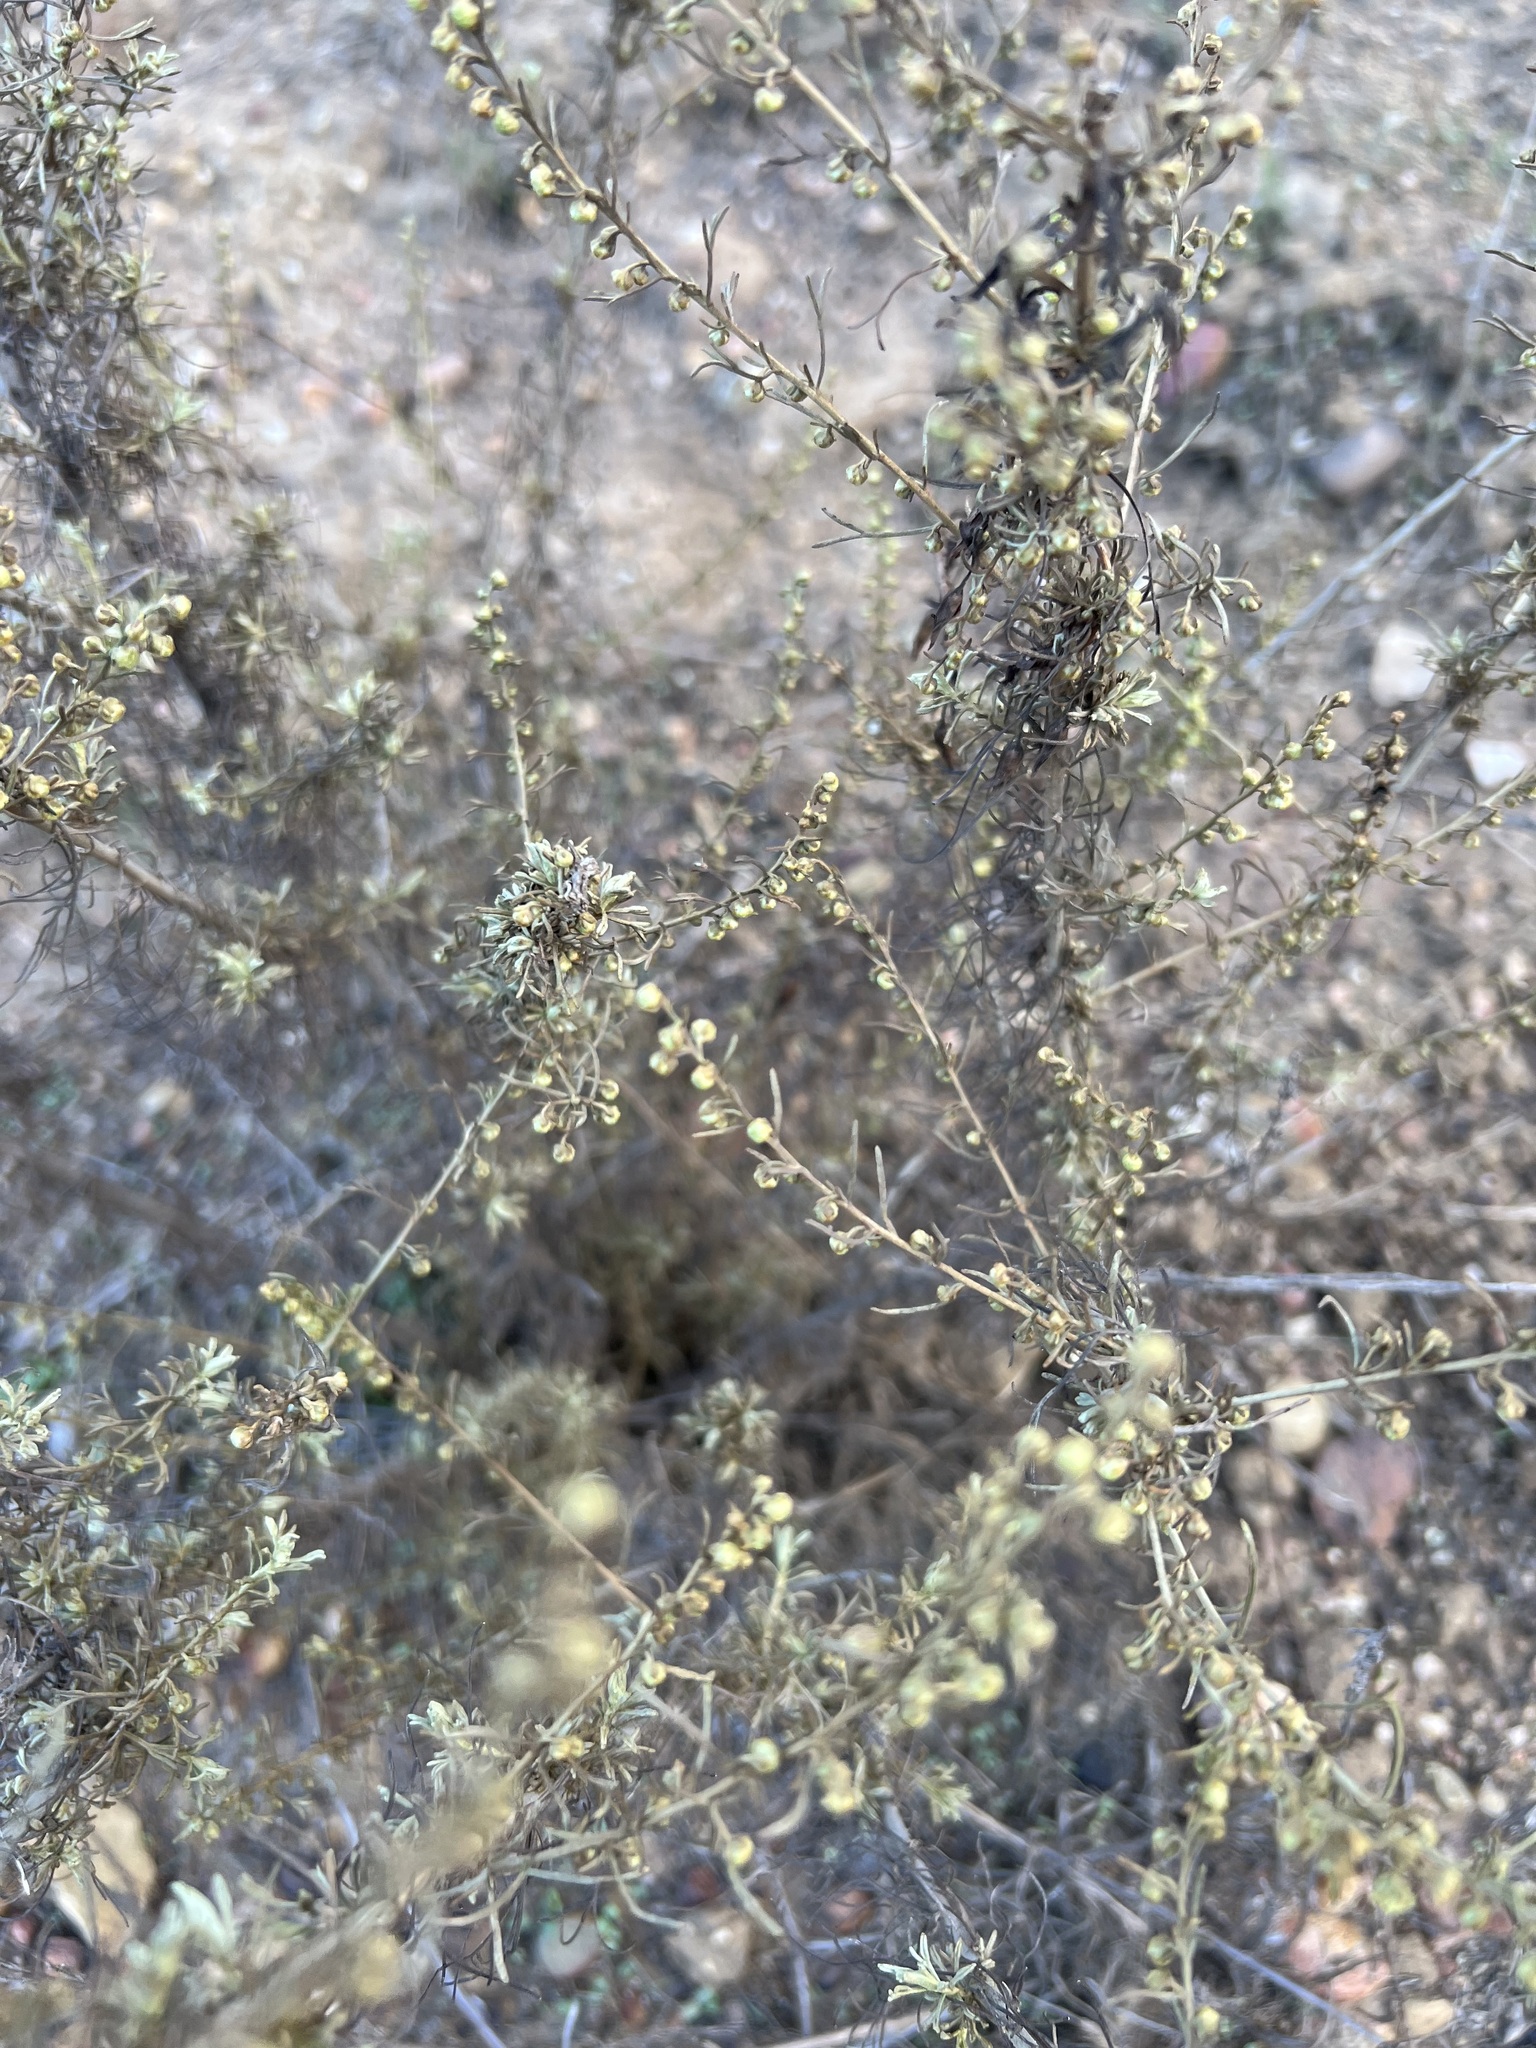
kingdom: Plantae
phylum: Tracheophyta
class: Magnoliopsida
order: Asterales
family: Asteraceae
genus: Artemisia
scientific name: Artemisia californica
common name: California sagebrush
